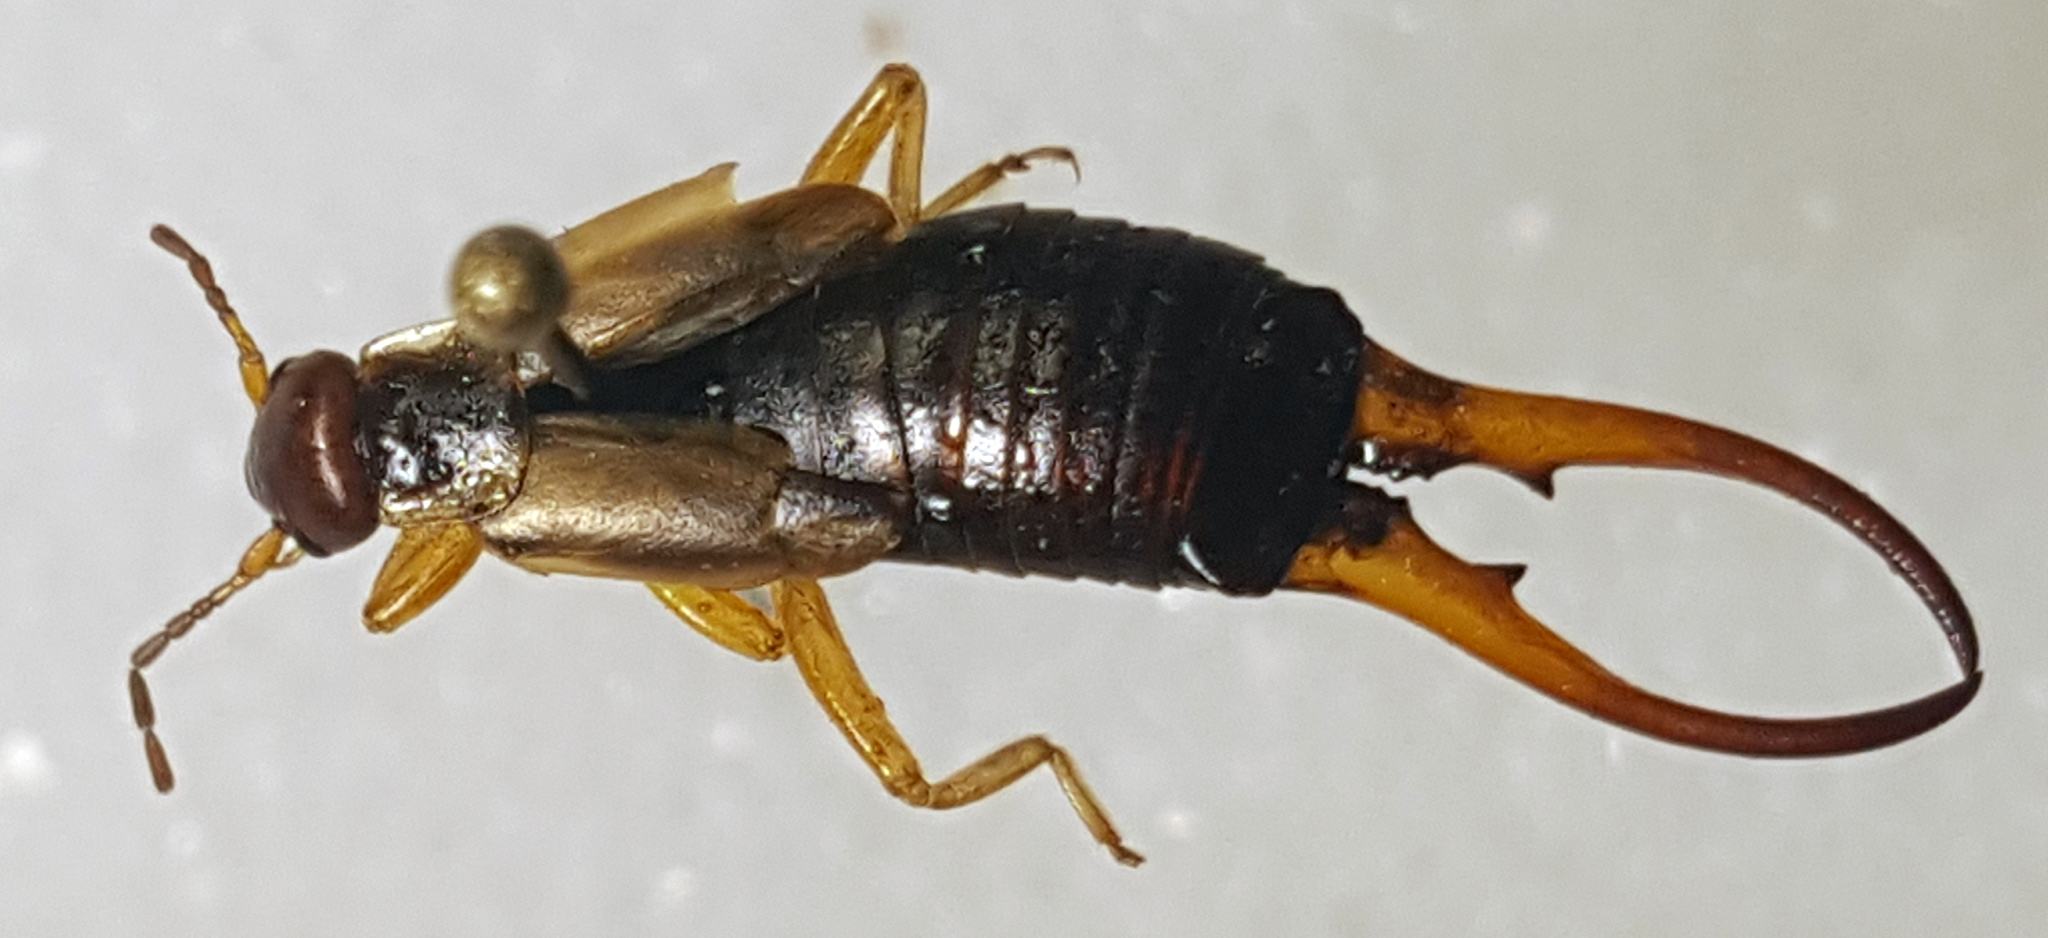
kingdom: Animalia
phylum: Arthropoda
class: Insecta
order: Dermaptera
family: Forficulidae
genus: Forficula
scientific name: Forficula
